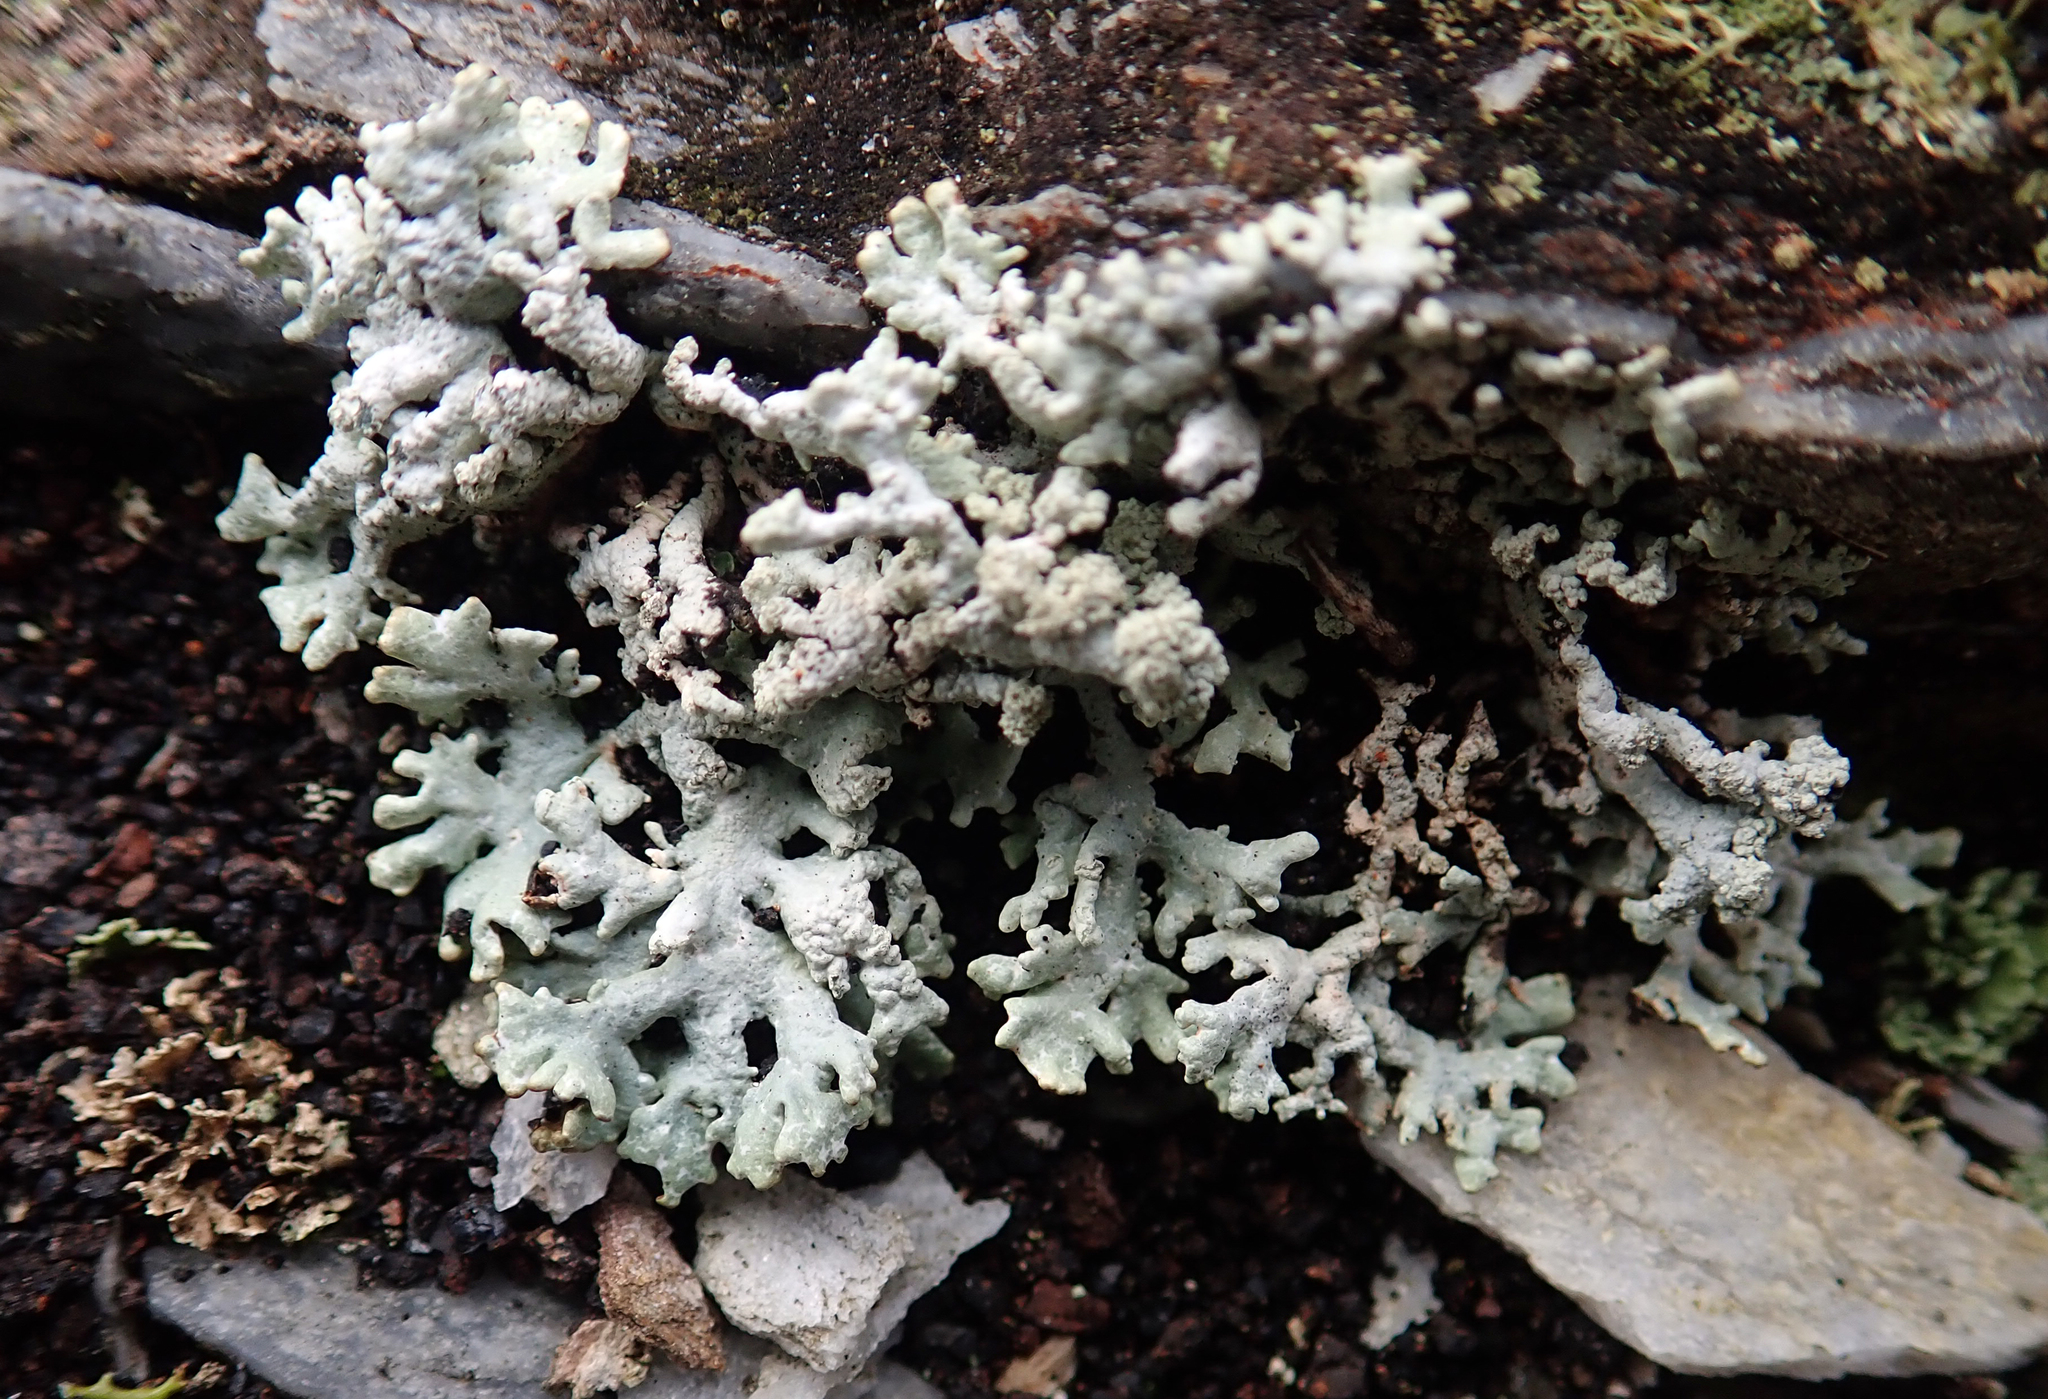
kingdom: Fungi
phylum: Ascomycota
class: Lecanoromycetes
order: Lecanorales
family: Parmeliaceae
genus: Hypogymnia
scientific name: Hypogymnia subphysodes
